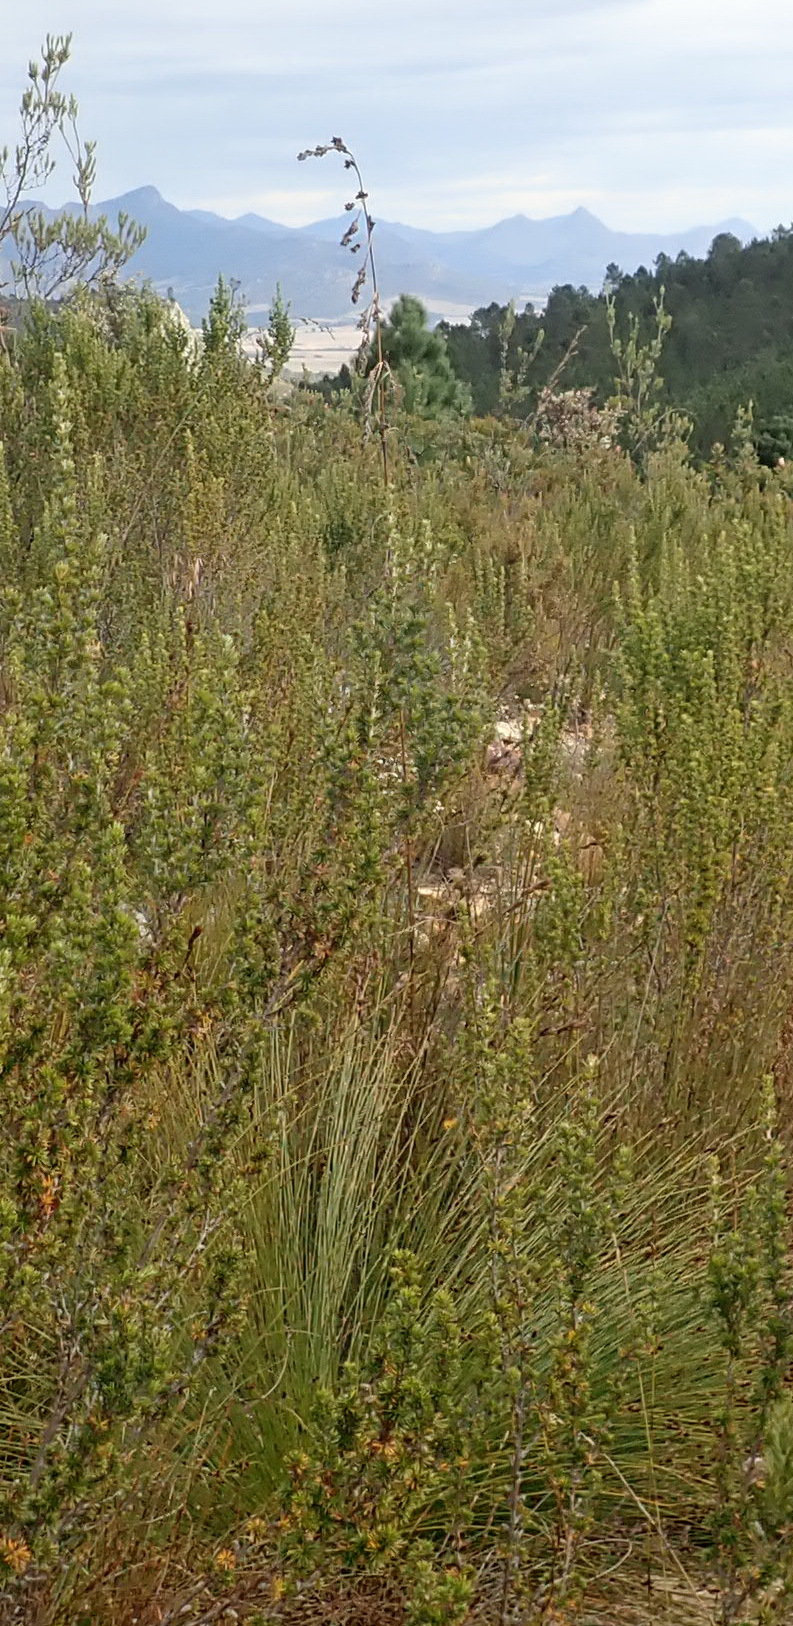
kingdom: Plantae
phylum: Tracheophyta
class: Liliopsida
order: Poales
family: Cyperaceae
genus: Tetraria
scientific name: Tetraria involucrata
